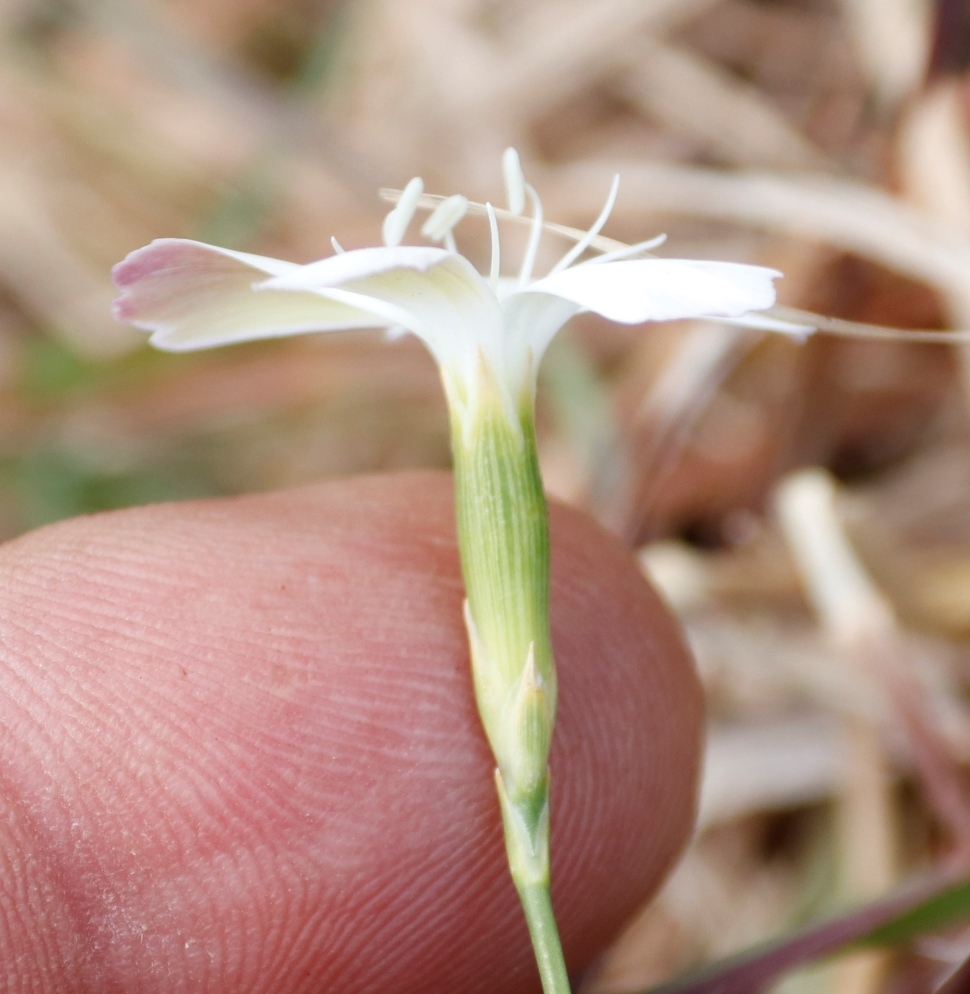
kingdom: Plantae
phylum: Tracheophyta
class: Magnoliopsida
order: Caryophyllales
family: Caryophyllaceae
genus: Dianthus
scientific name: Dianthus albens
